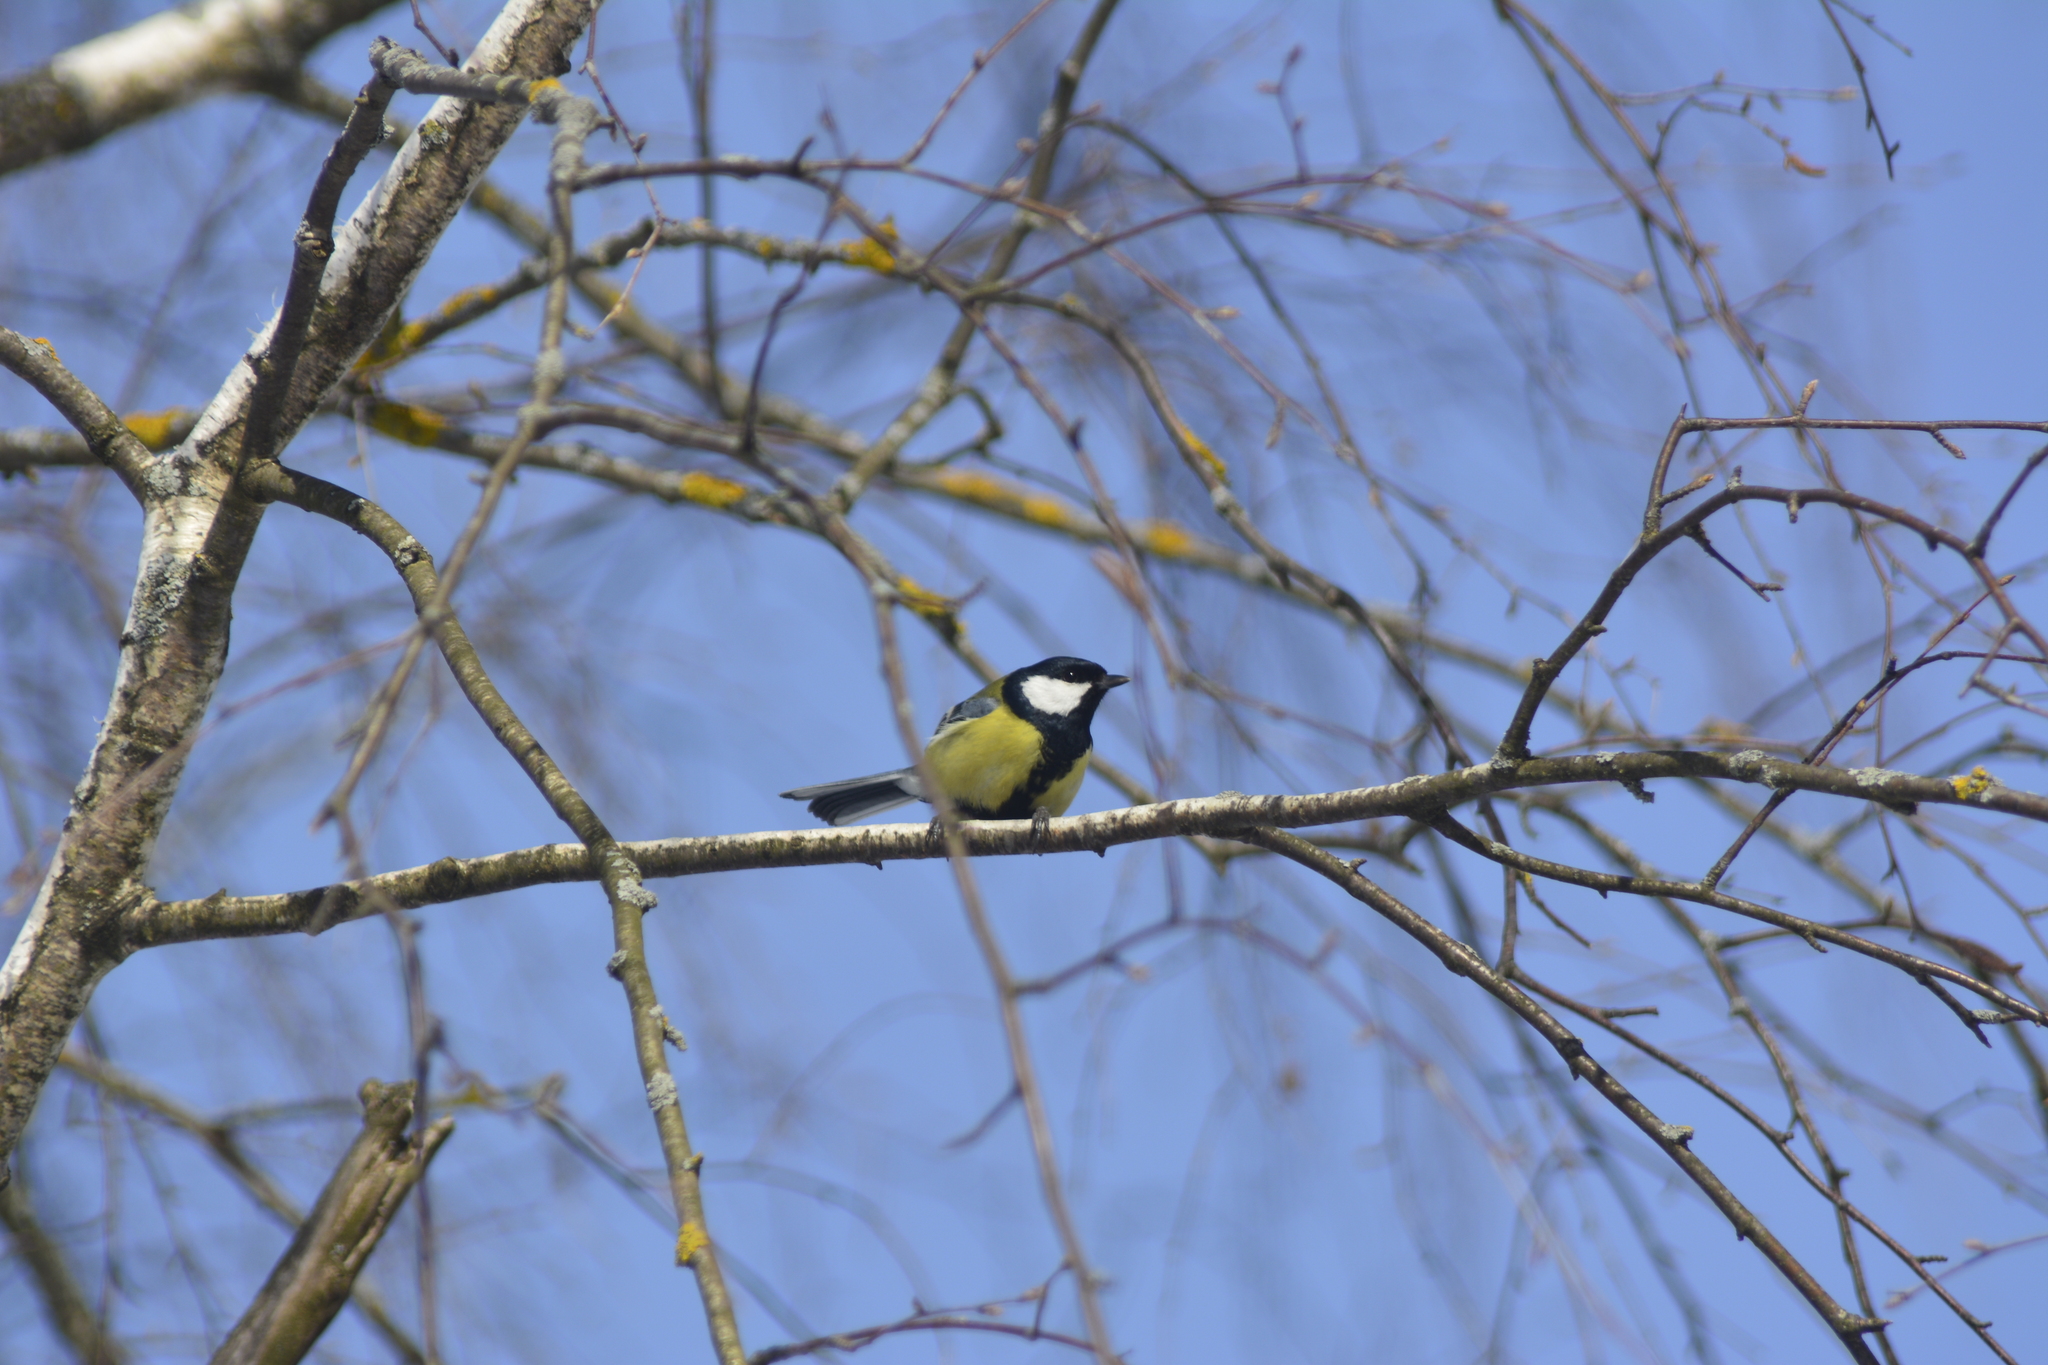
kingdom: Animalia
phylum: Chordata
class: Aves
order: Passeriformes
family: Paridae
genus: Parus
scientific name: Parus major
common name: Great tit
